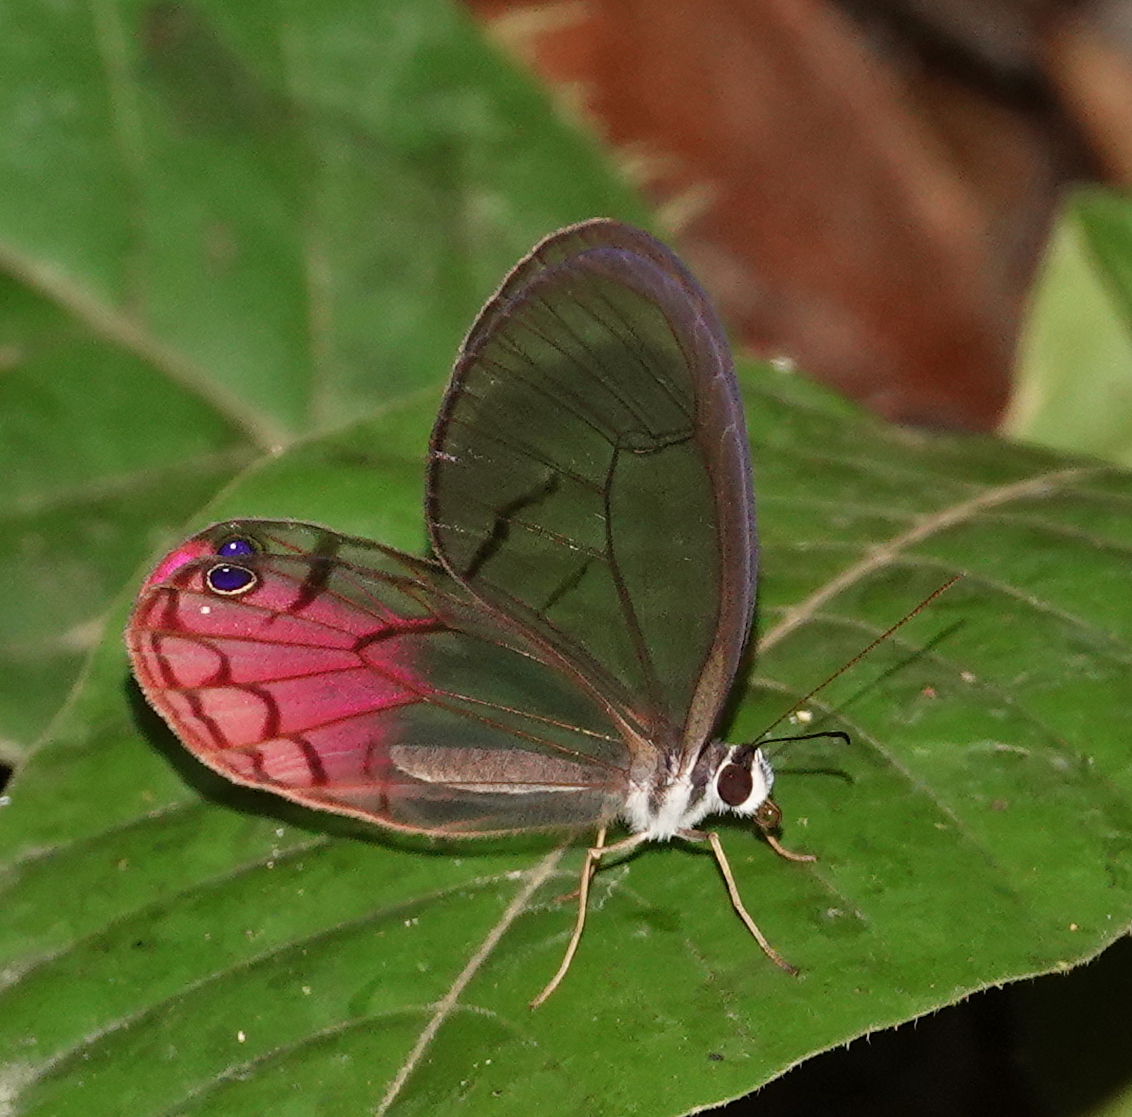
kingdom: Animalia
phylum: Arthropoda
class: Insecta
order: Lepidoptera
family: Nymphalidae
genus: Cithaerias
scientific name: Cithaerias cliftoni
